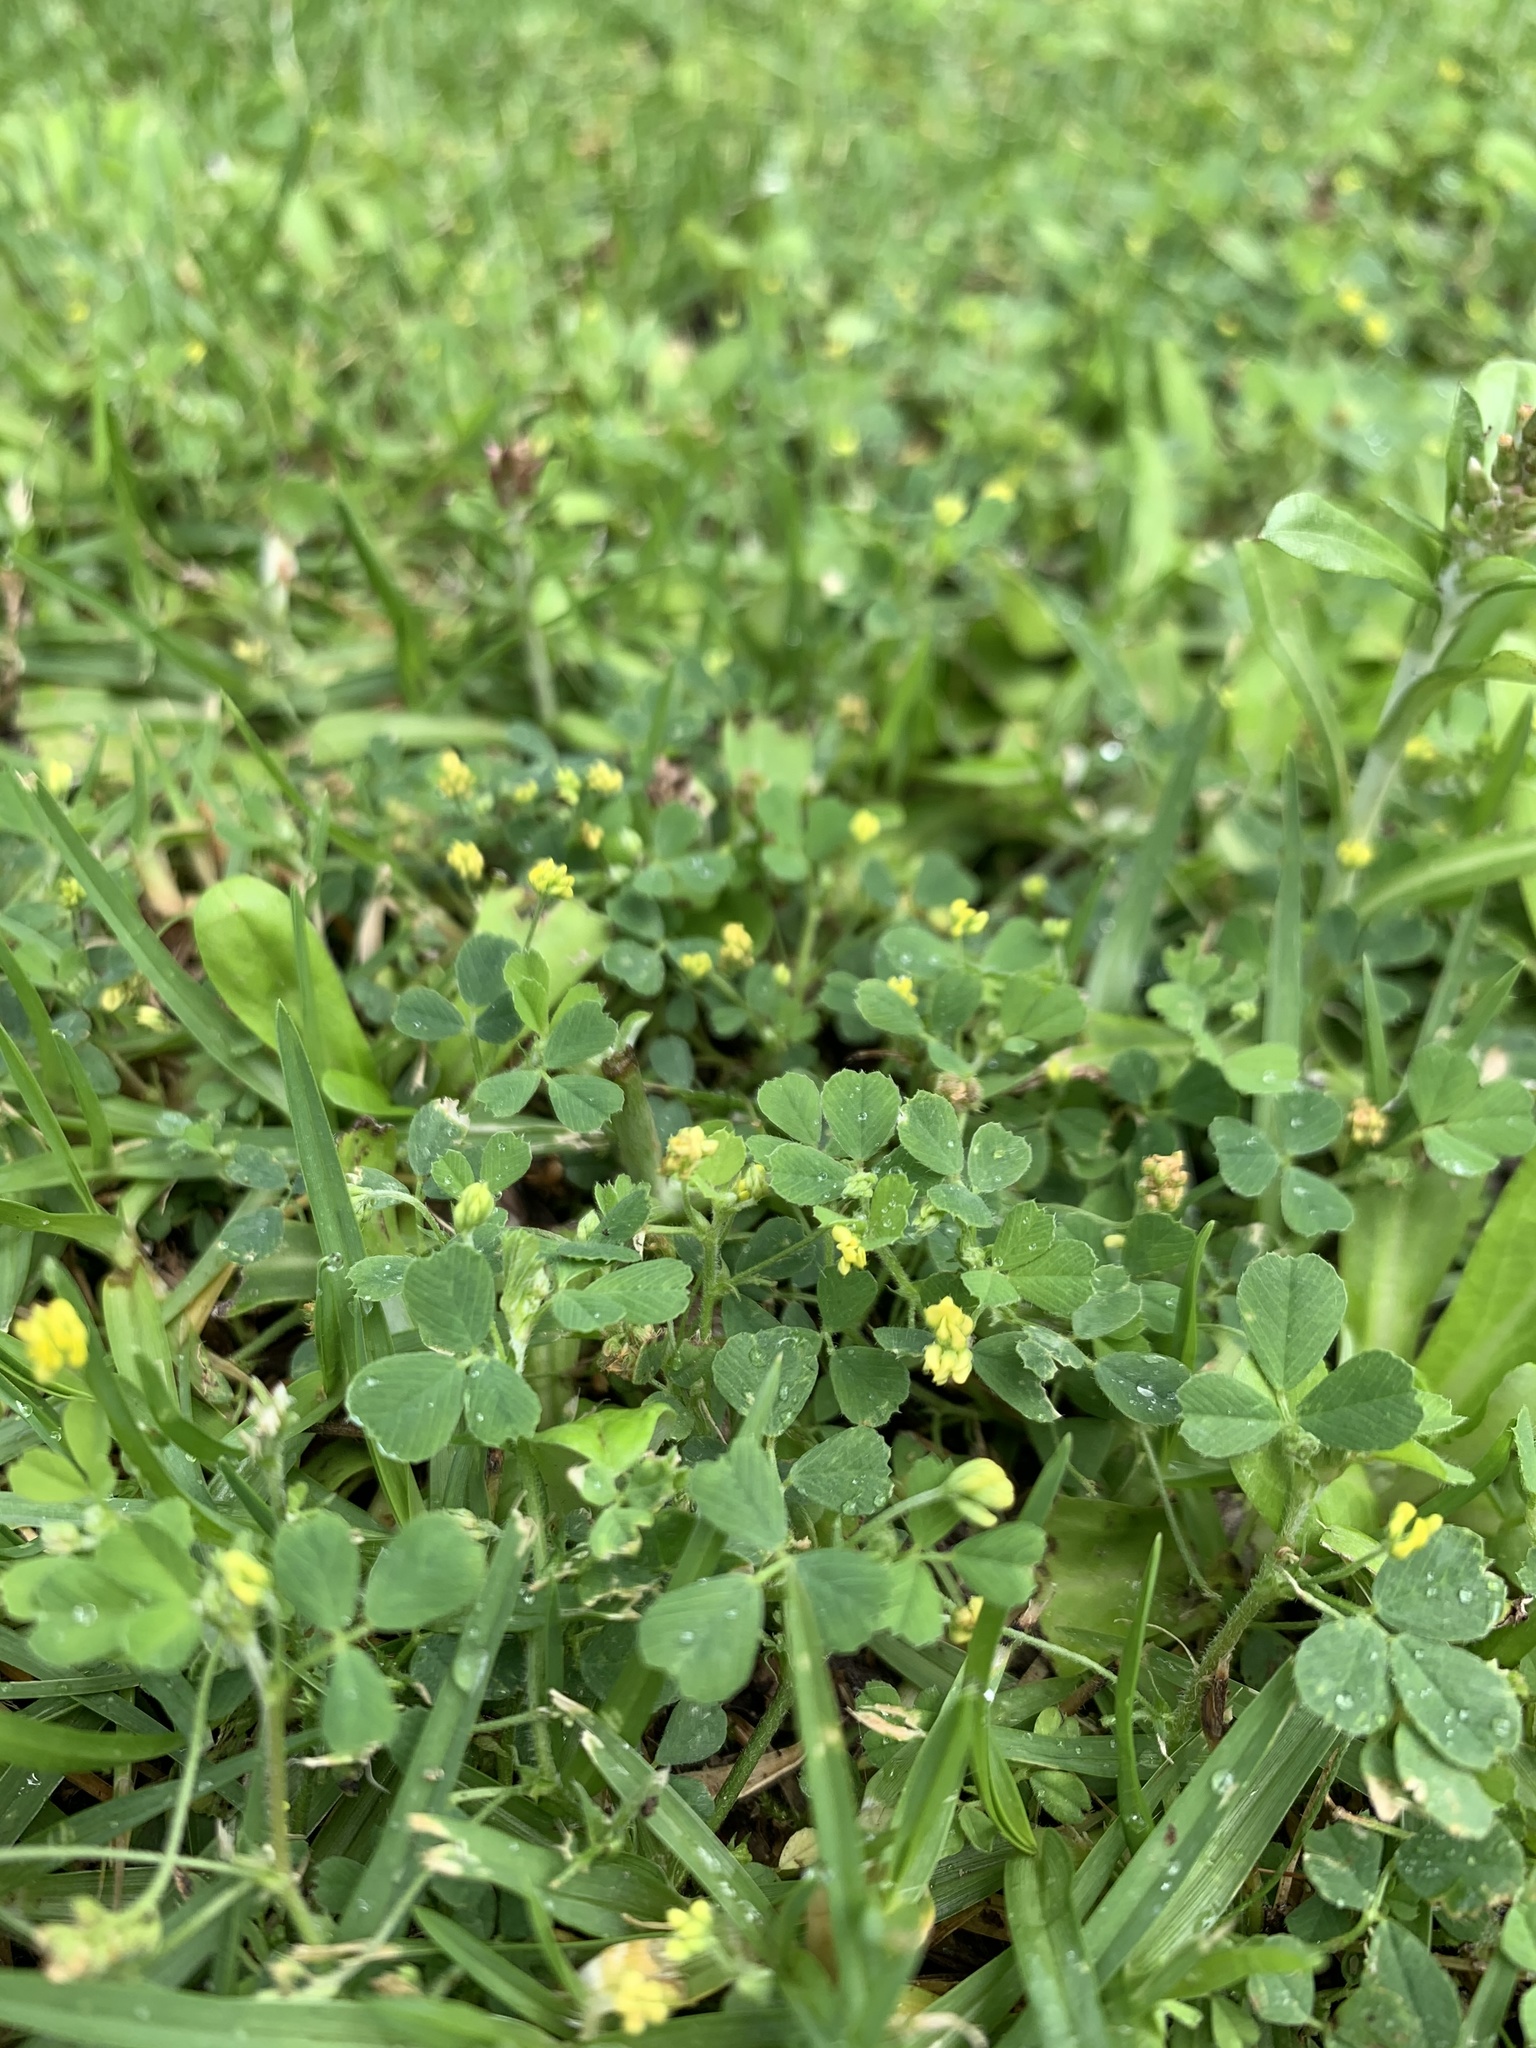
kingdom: Plantae
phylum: Tracheophyta
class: Magnoliopsida
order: Fabales
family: Fabaceae
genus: Medicago
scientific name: Medicago lupulina
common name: Black medick
